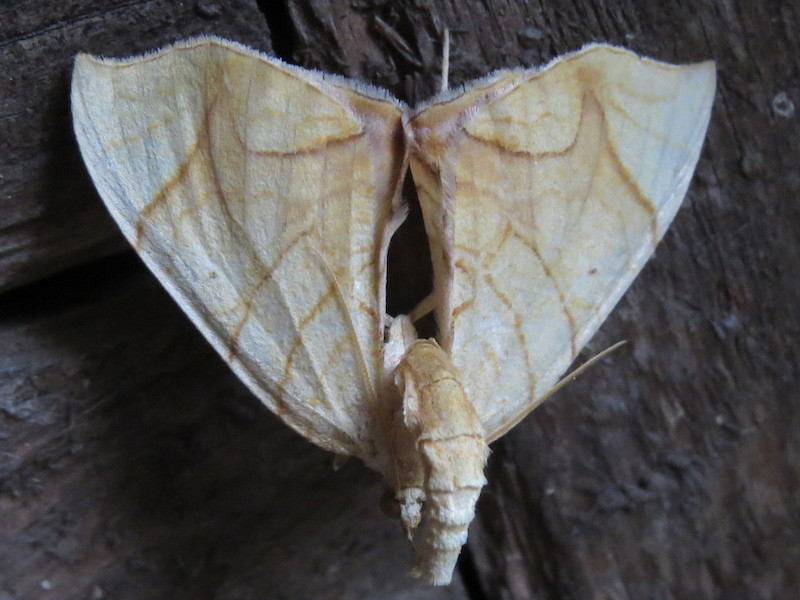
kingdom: Animalia
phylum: Arthropoda
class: Insecta
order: Lepidoptera
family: Geometridae
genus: Eulithis
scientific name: Eulithis
